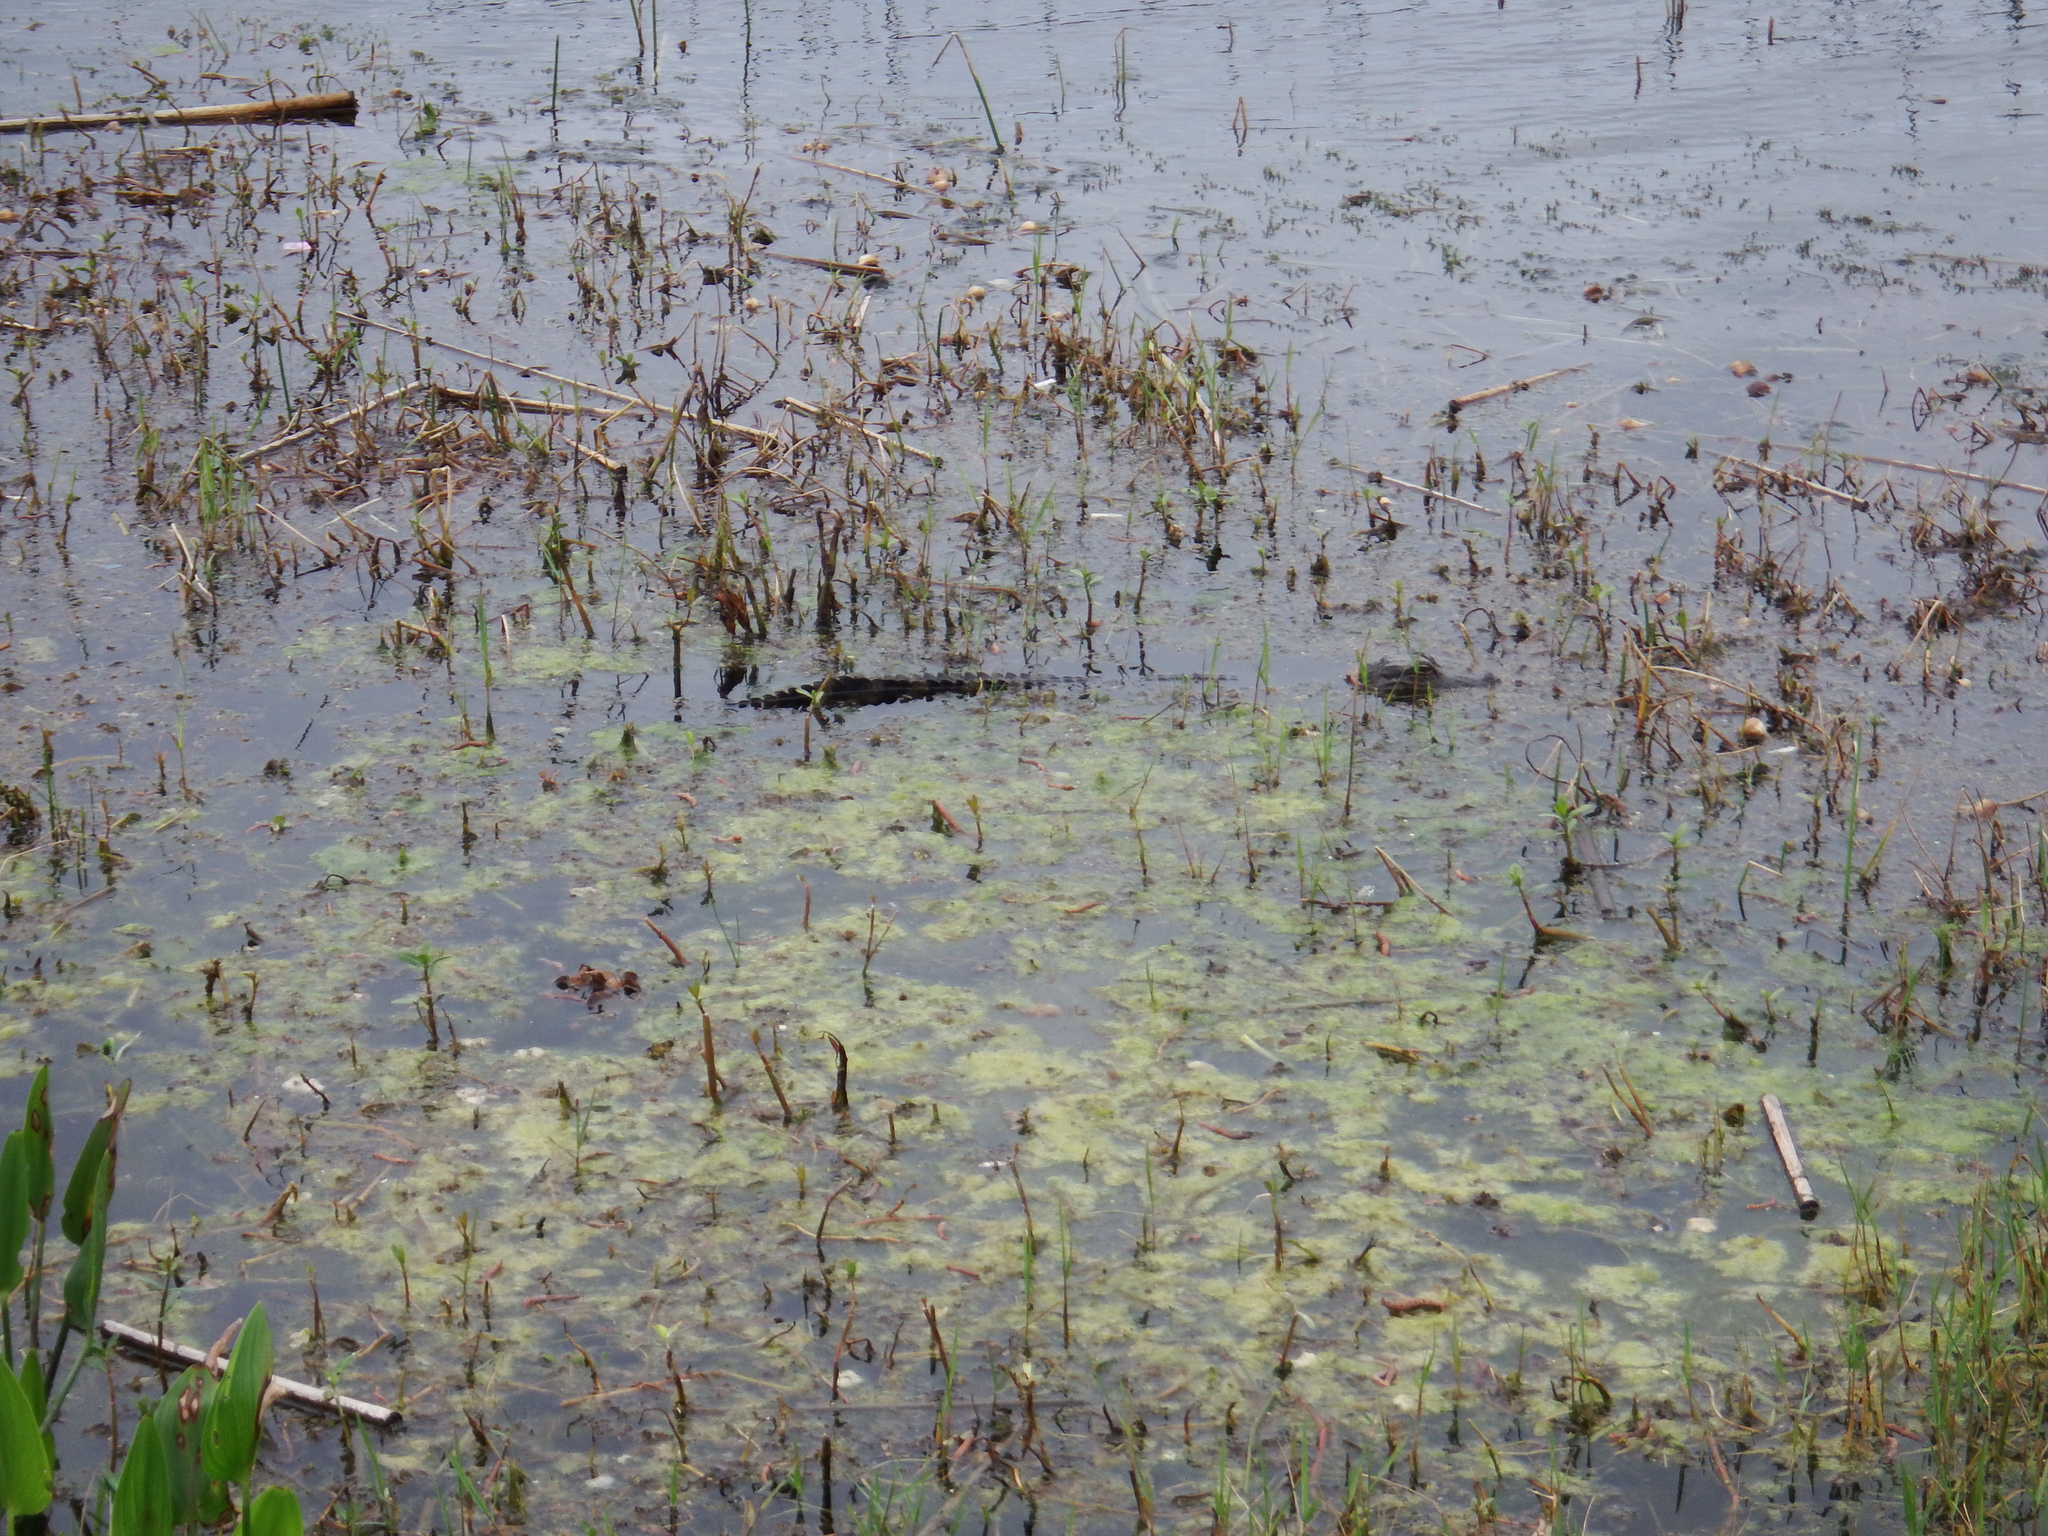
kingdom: Animalia
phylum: Chordata
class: Crocodylia
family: Alligatoridae
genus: Alligator
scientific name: Alligator mississippiensis
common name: American alligator
